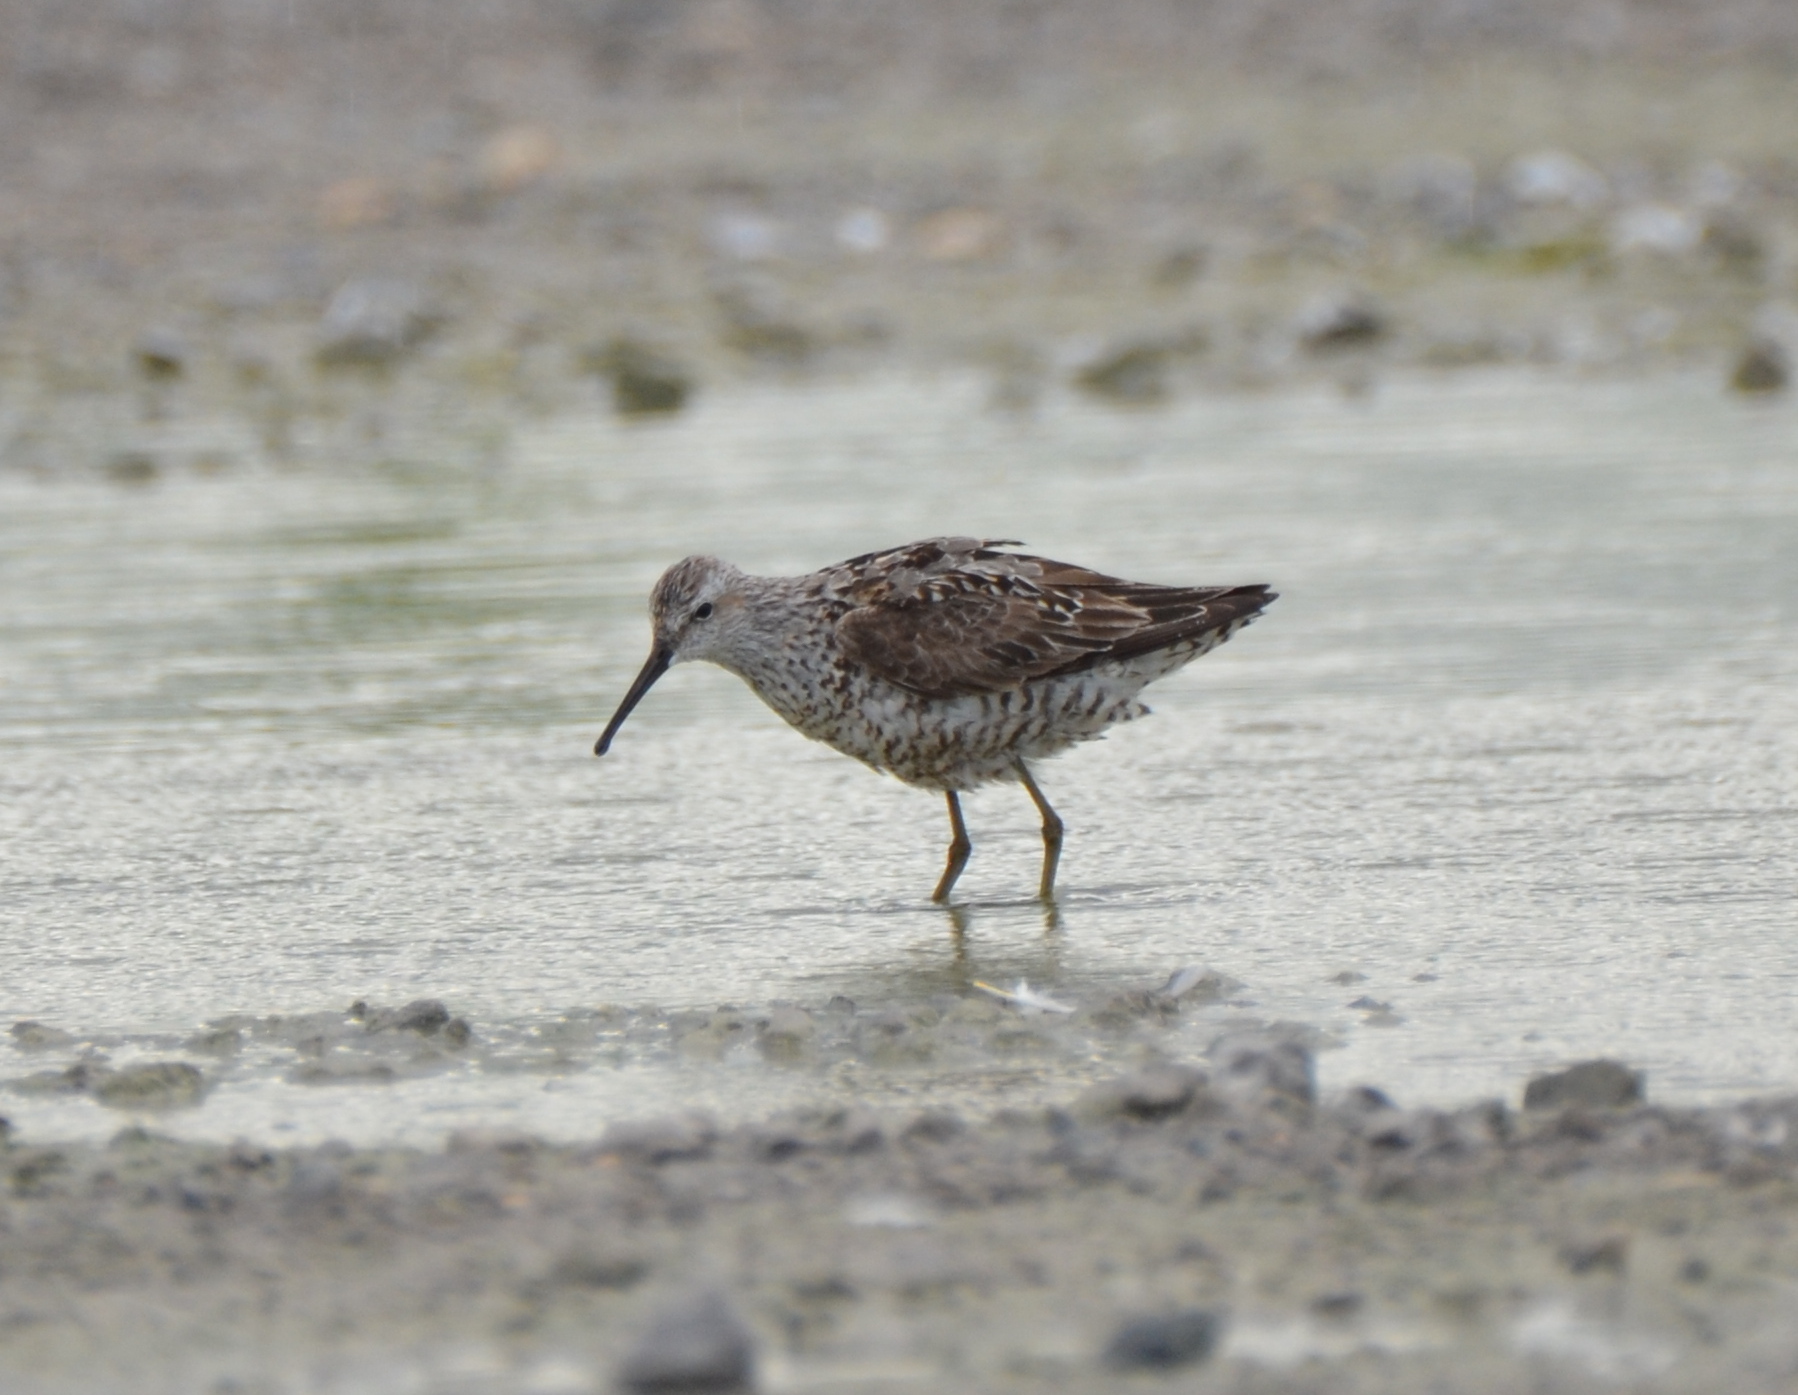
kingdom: Animalia
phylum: Chordata
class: Aves
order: Charadriiformes
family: Scolopacidae
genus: Calidris
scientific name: Calidris himantopus
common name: Stilt sandpiper
